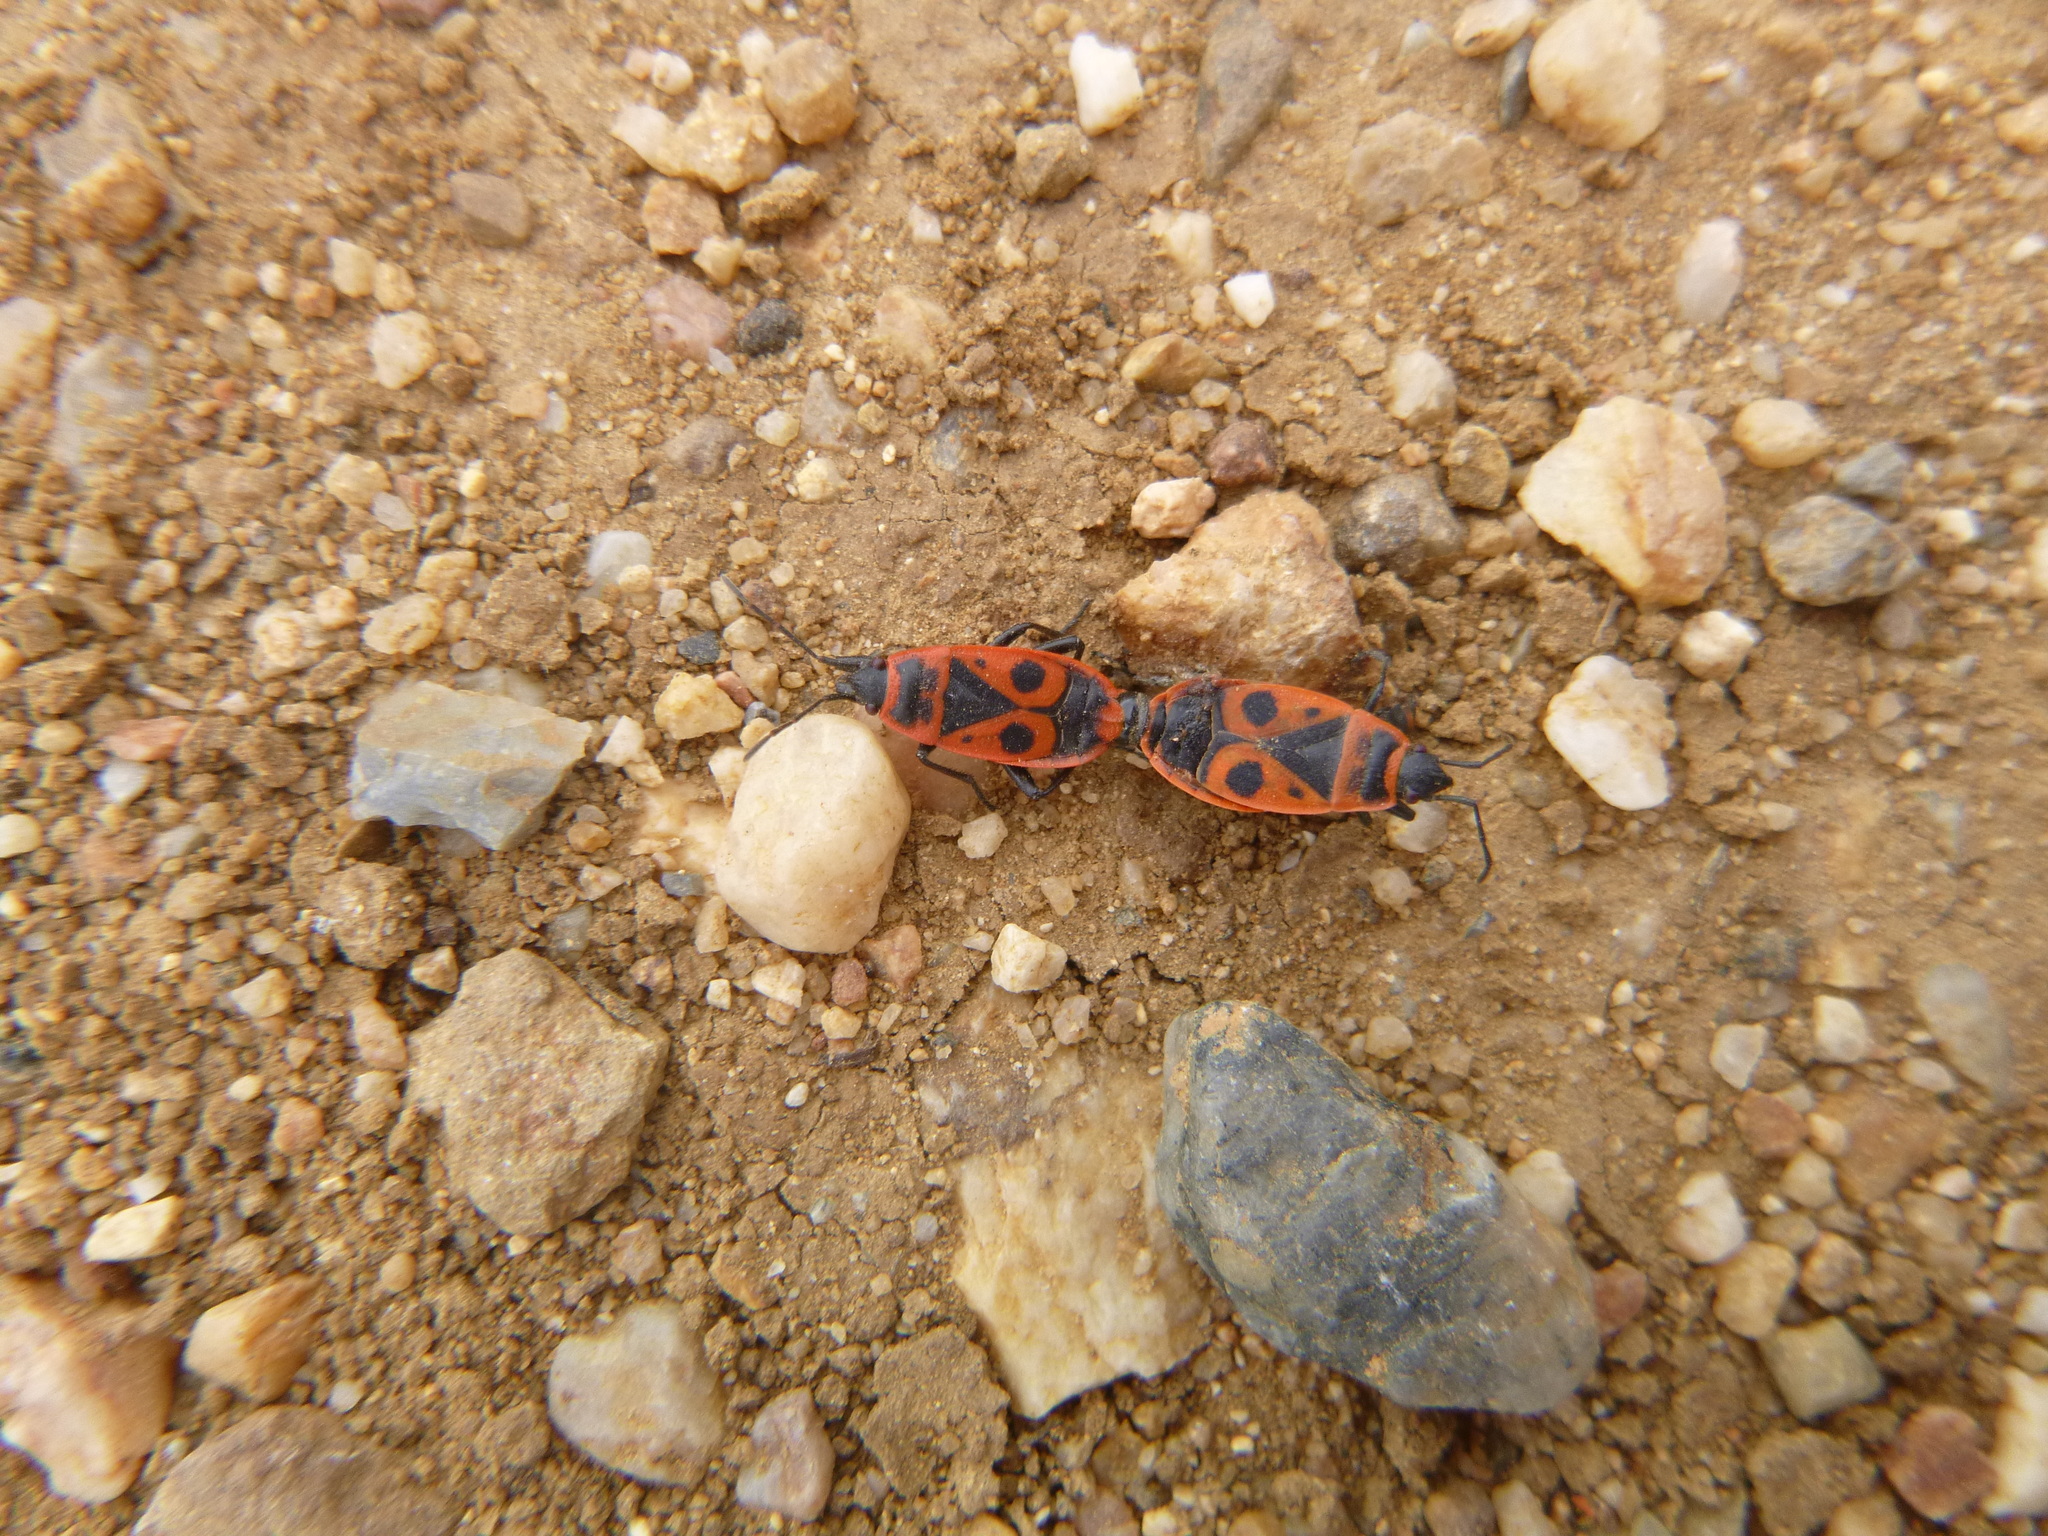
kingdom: Animalia
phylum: Arthropoda
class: Insecta
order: Hemiptera
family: Pyrrhocoridae
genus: Pyrrhocoris
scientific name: Pyrrhocoris apterus
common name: Firebug
